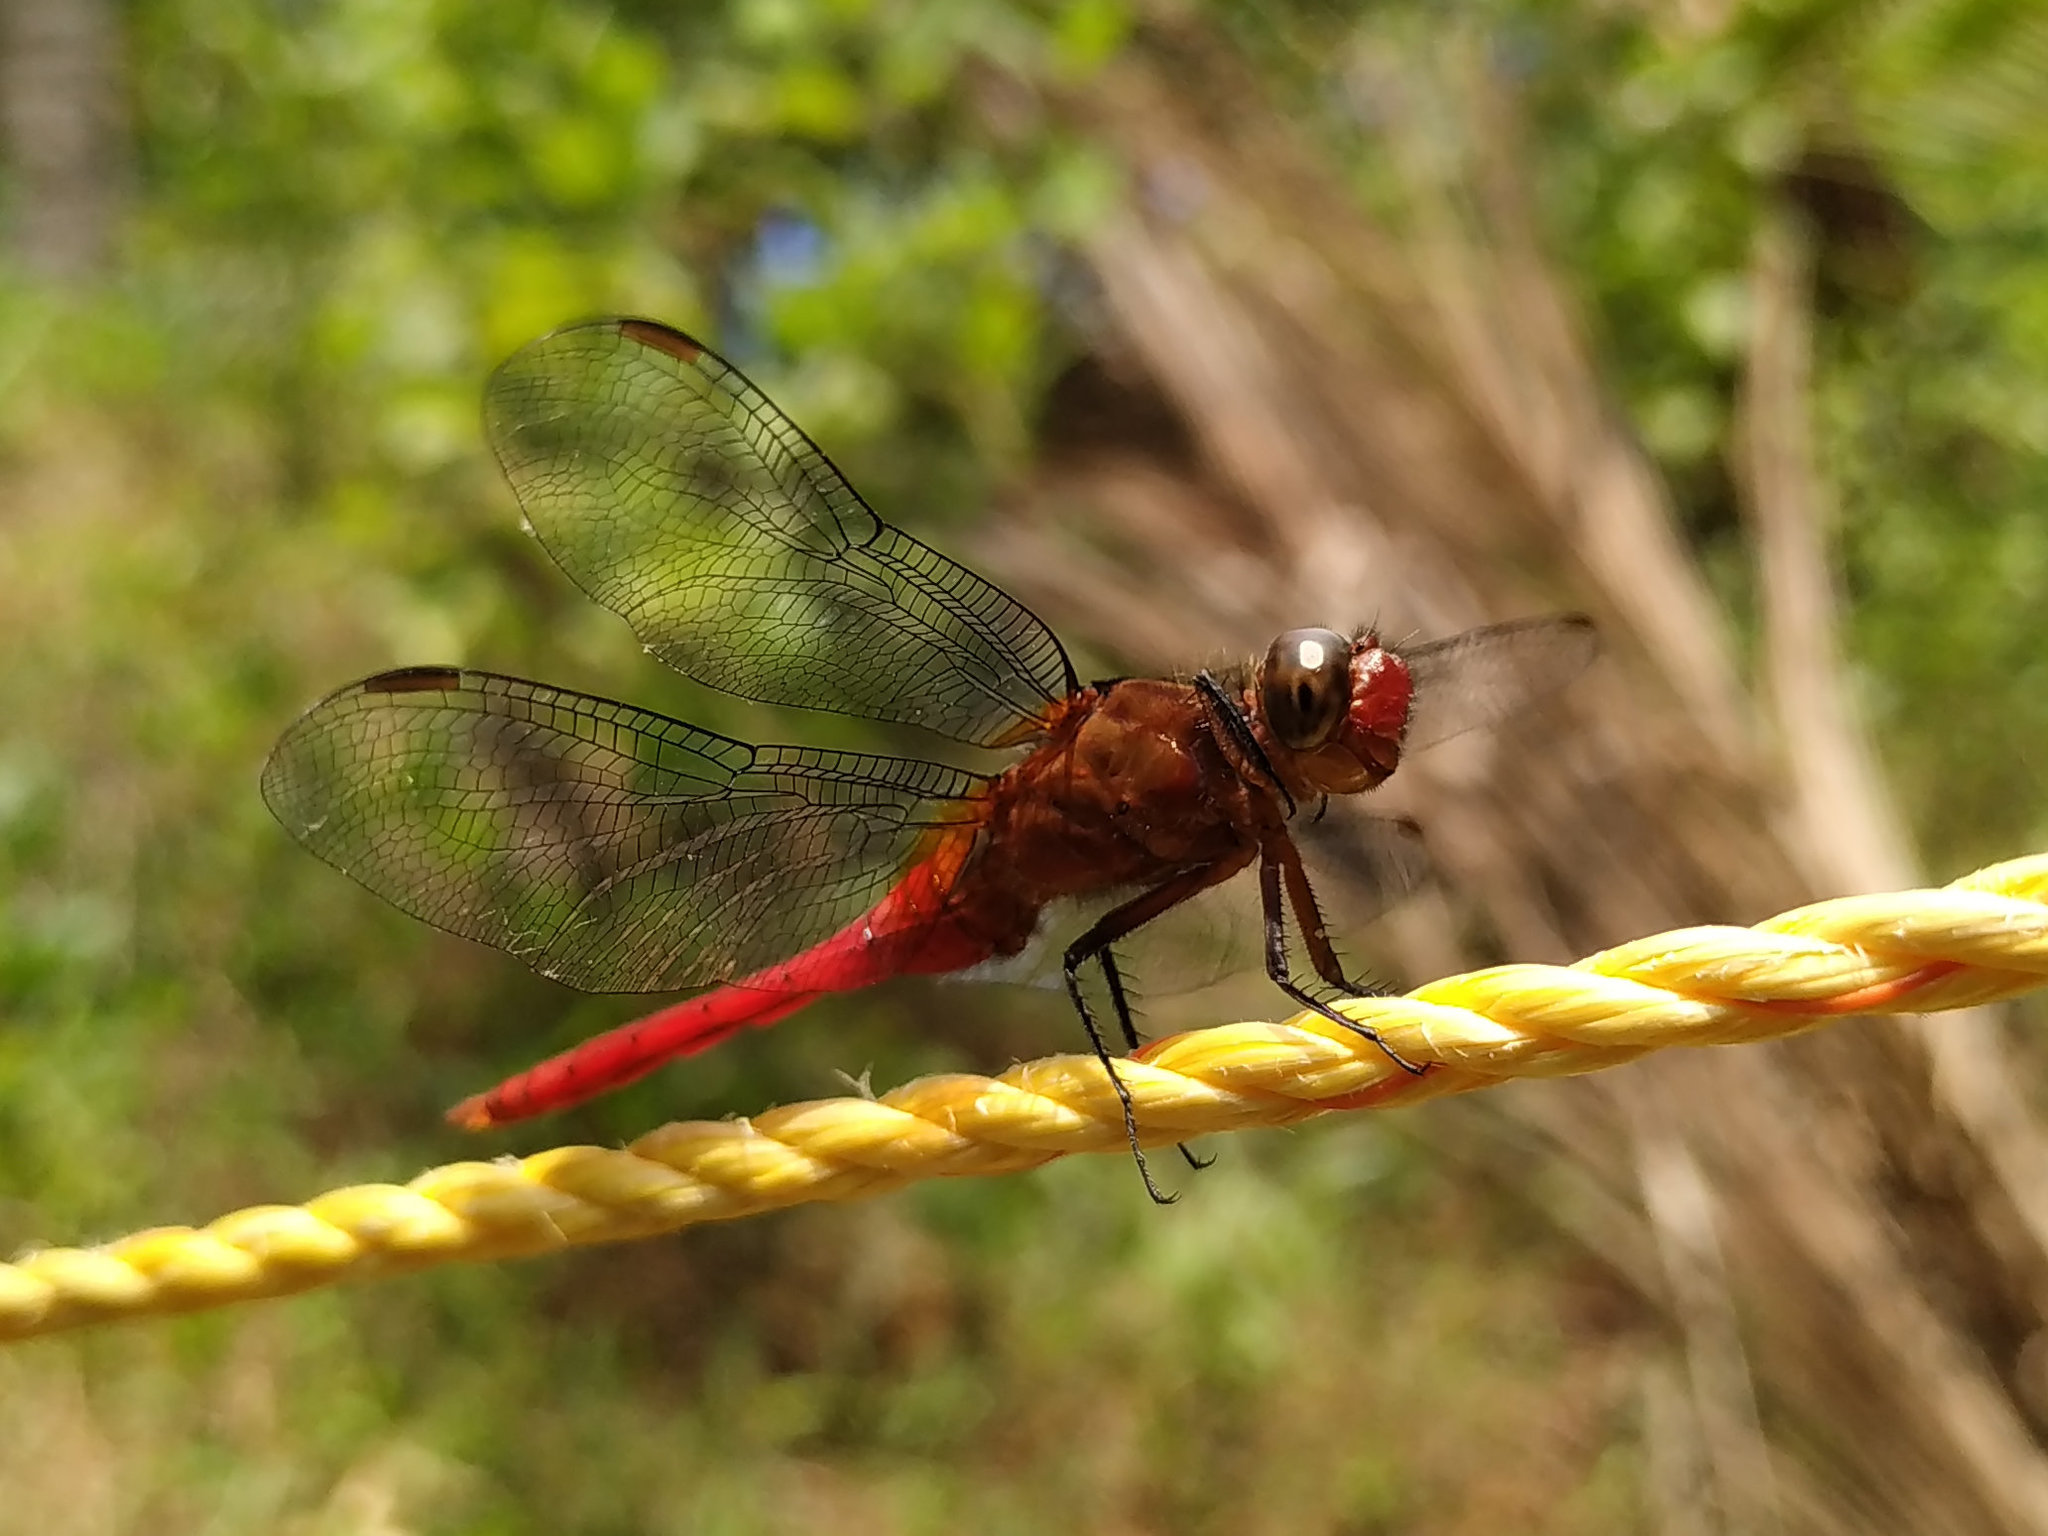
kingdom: Animalia
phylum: Arthropoda
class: Insecta
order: Odonata
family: Libellulidae
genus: Orthetrum
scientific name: Orthetrum chrysis
